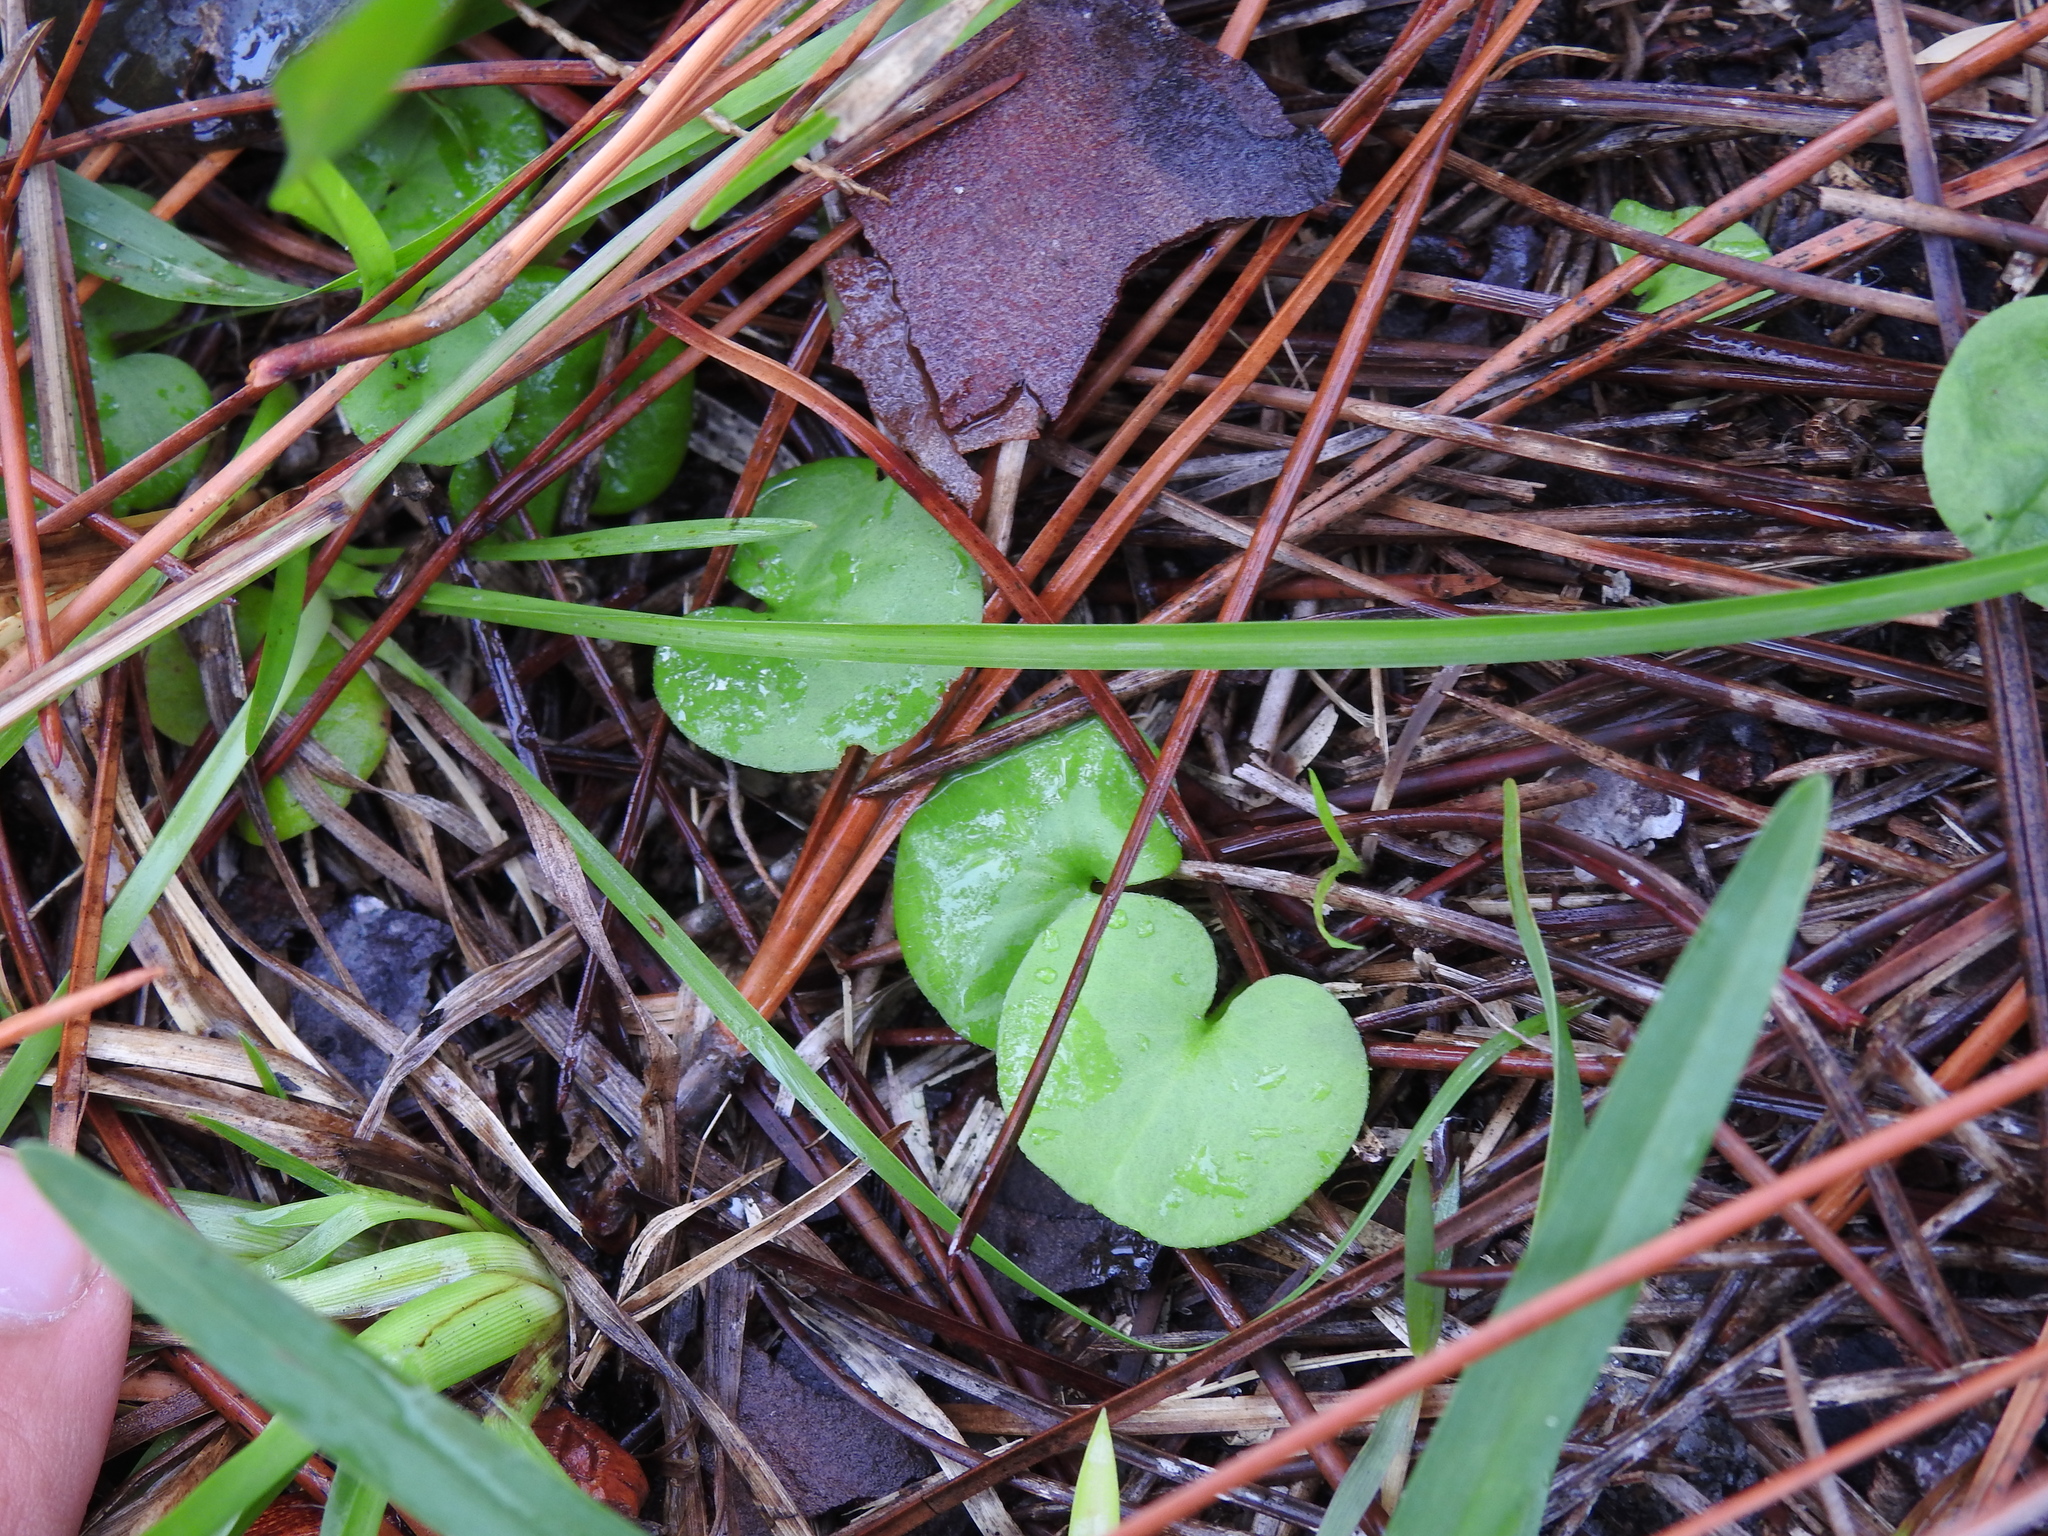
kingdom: Plantae
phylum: Tracheophyta
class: Magnoliopsida
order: Solanales
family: Convolvulaceae
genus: Dichondra
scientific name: Dichondra carolinensis
